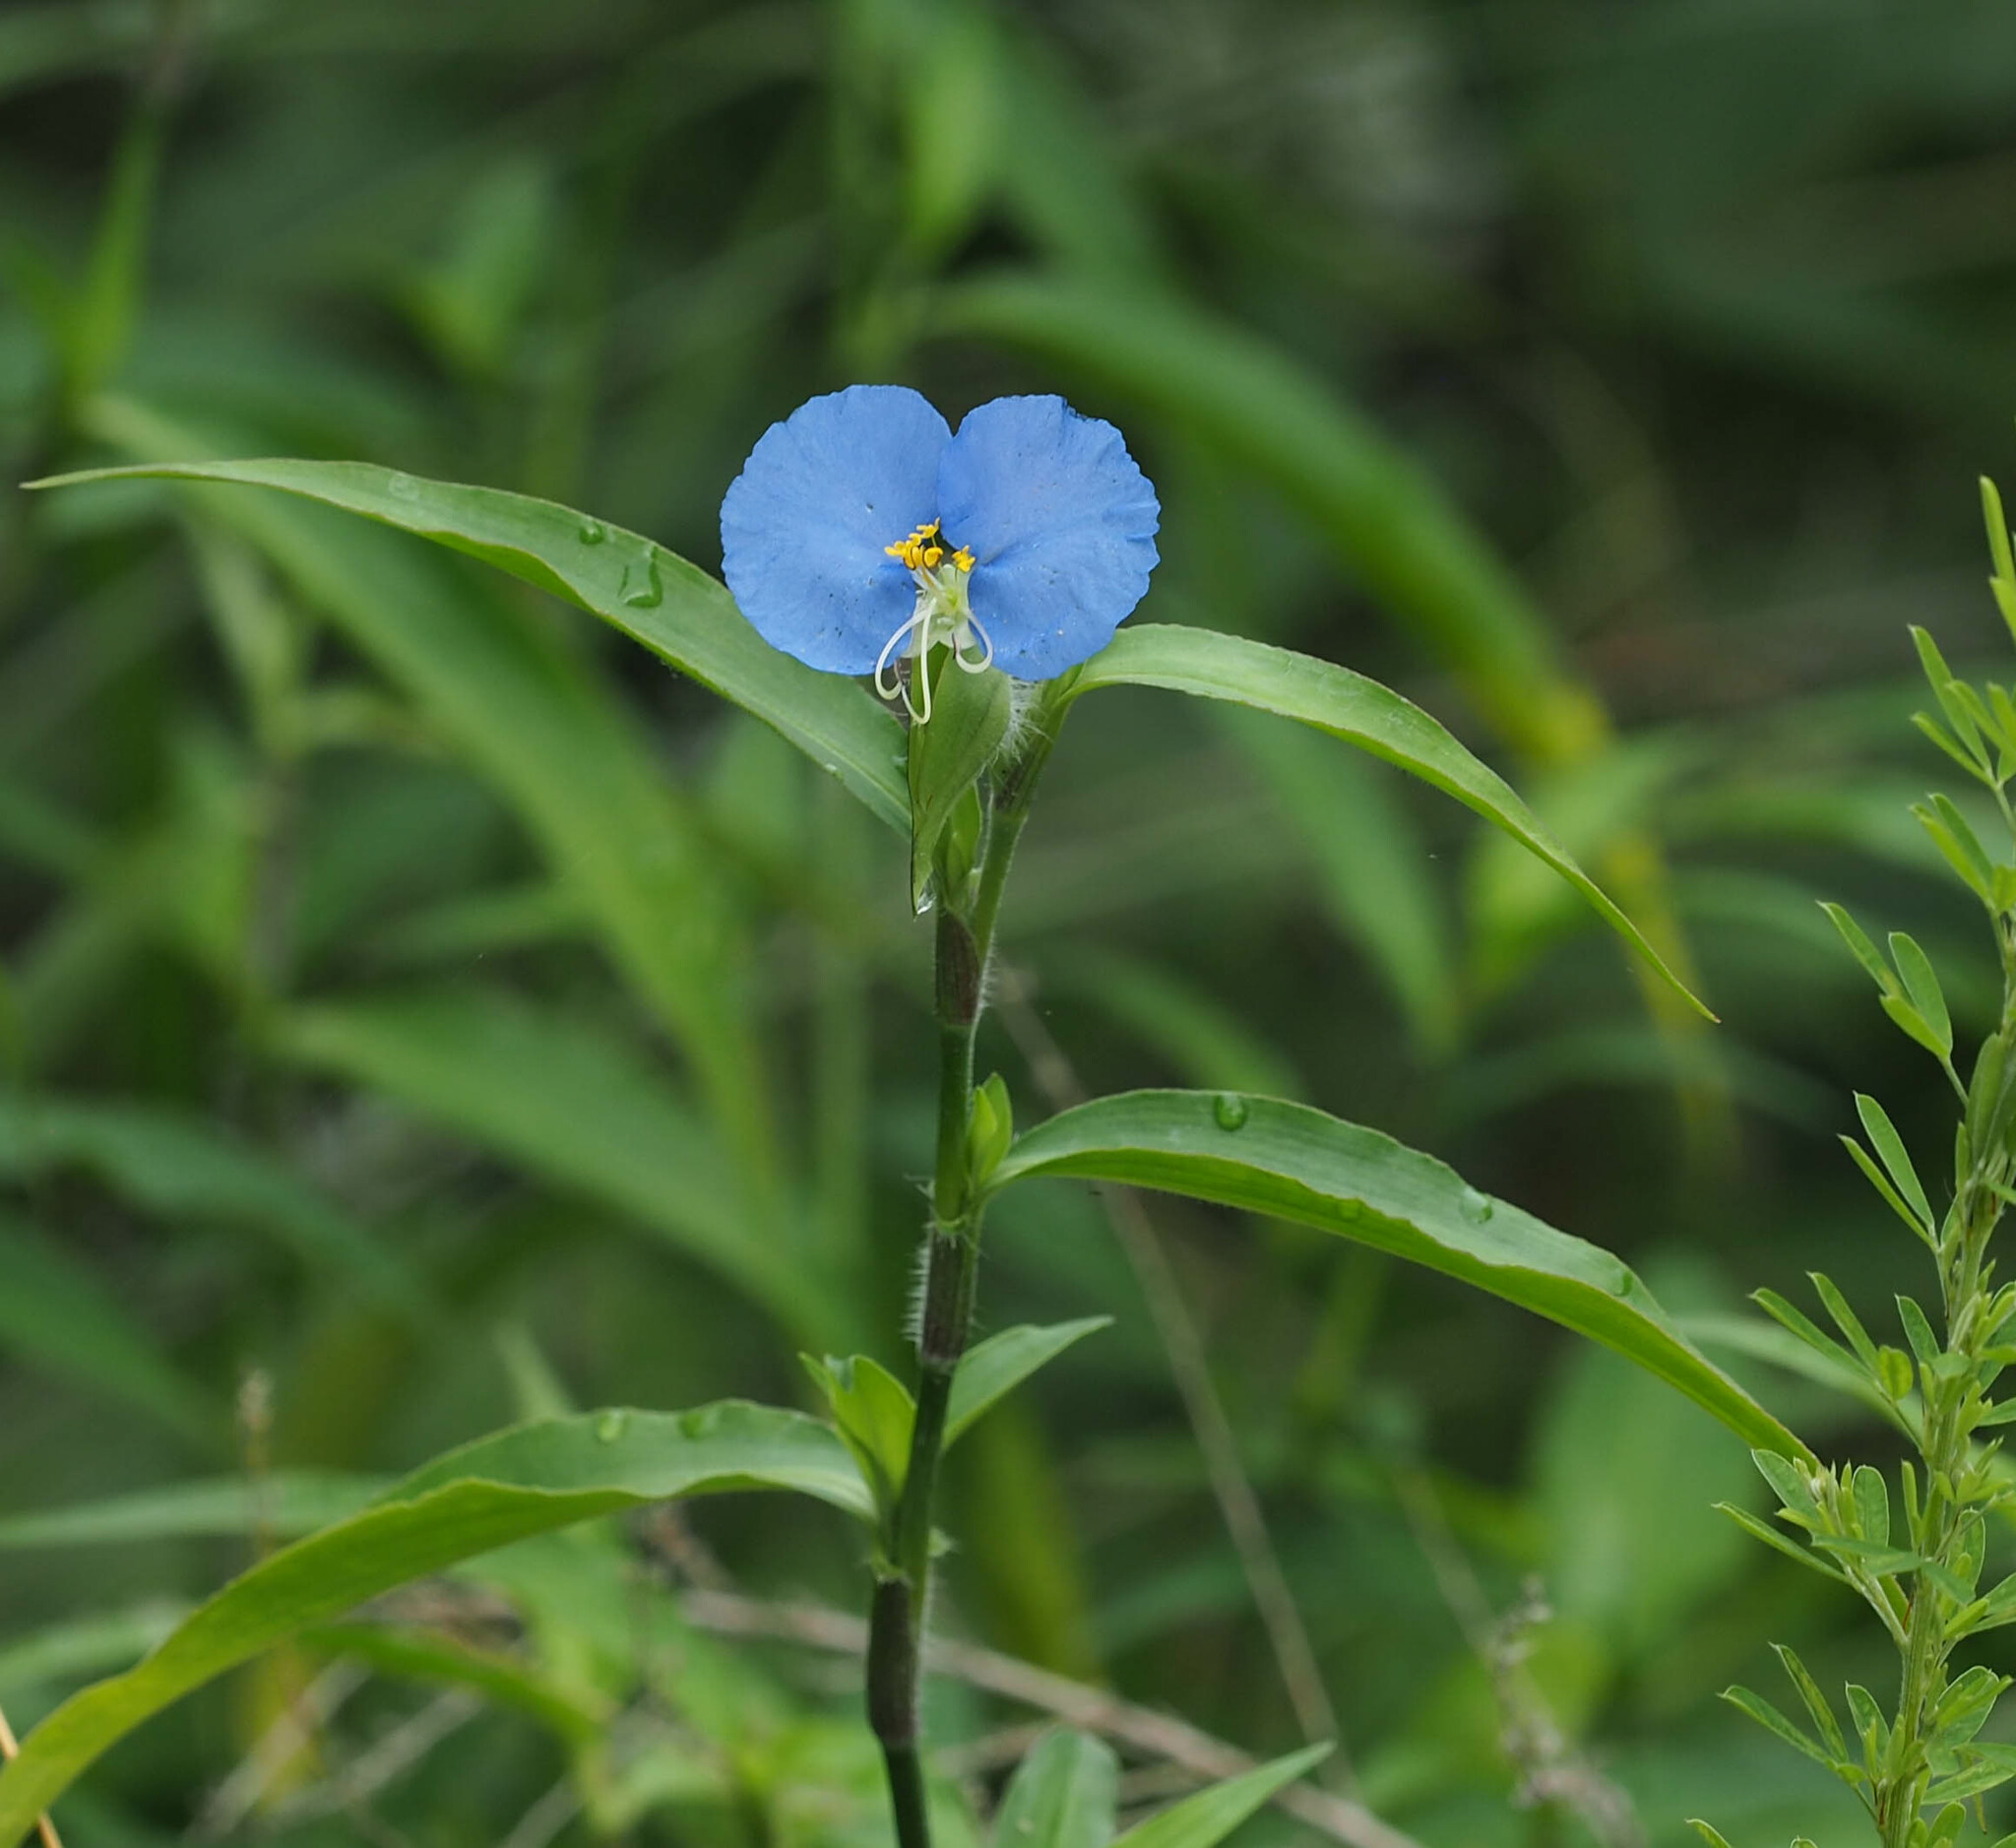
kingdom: Plantae
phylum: Tracheophyta
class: Liliopsida
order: Commelinales
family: Commelinaceae
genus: Commelina
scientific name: Commelina erecta
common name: Blousel blommetjie
